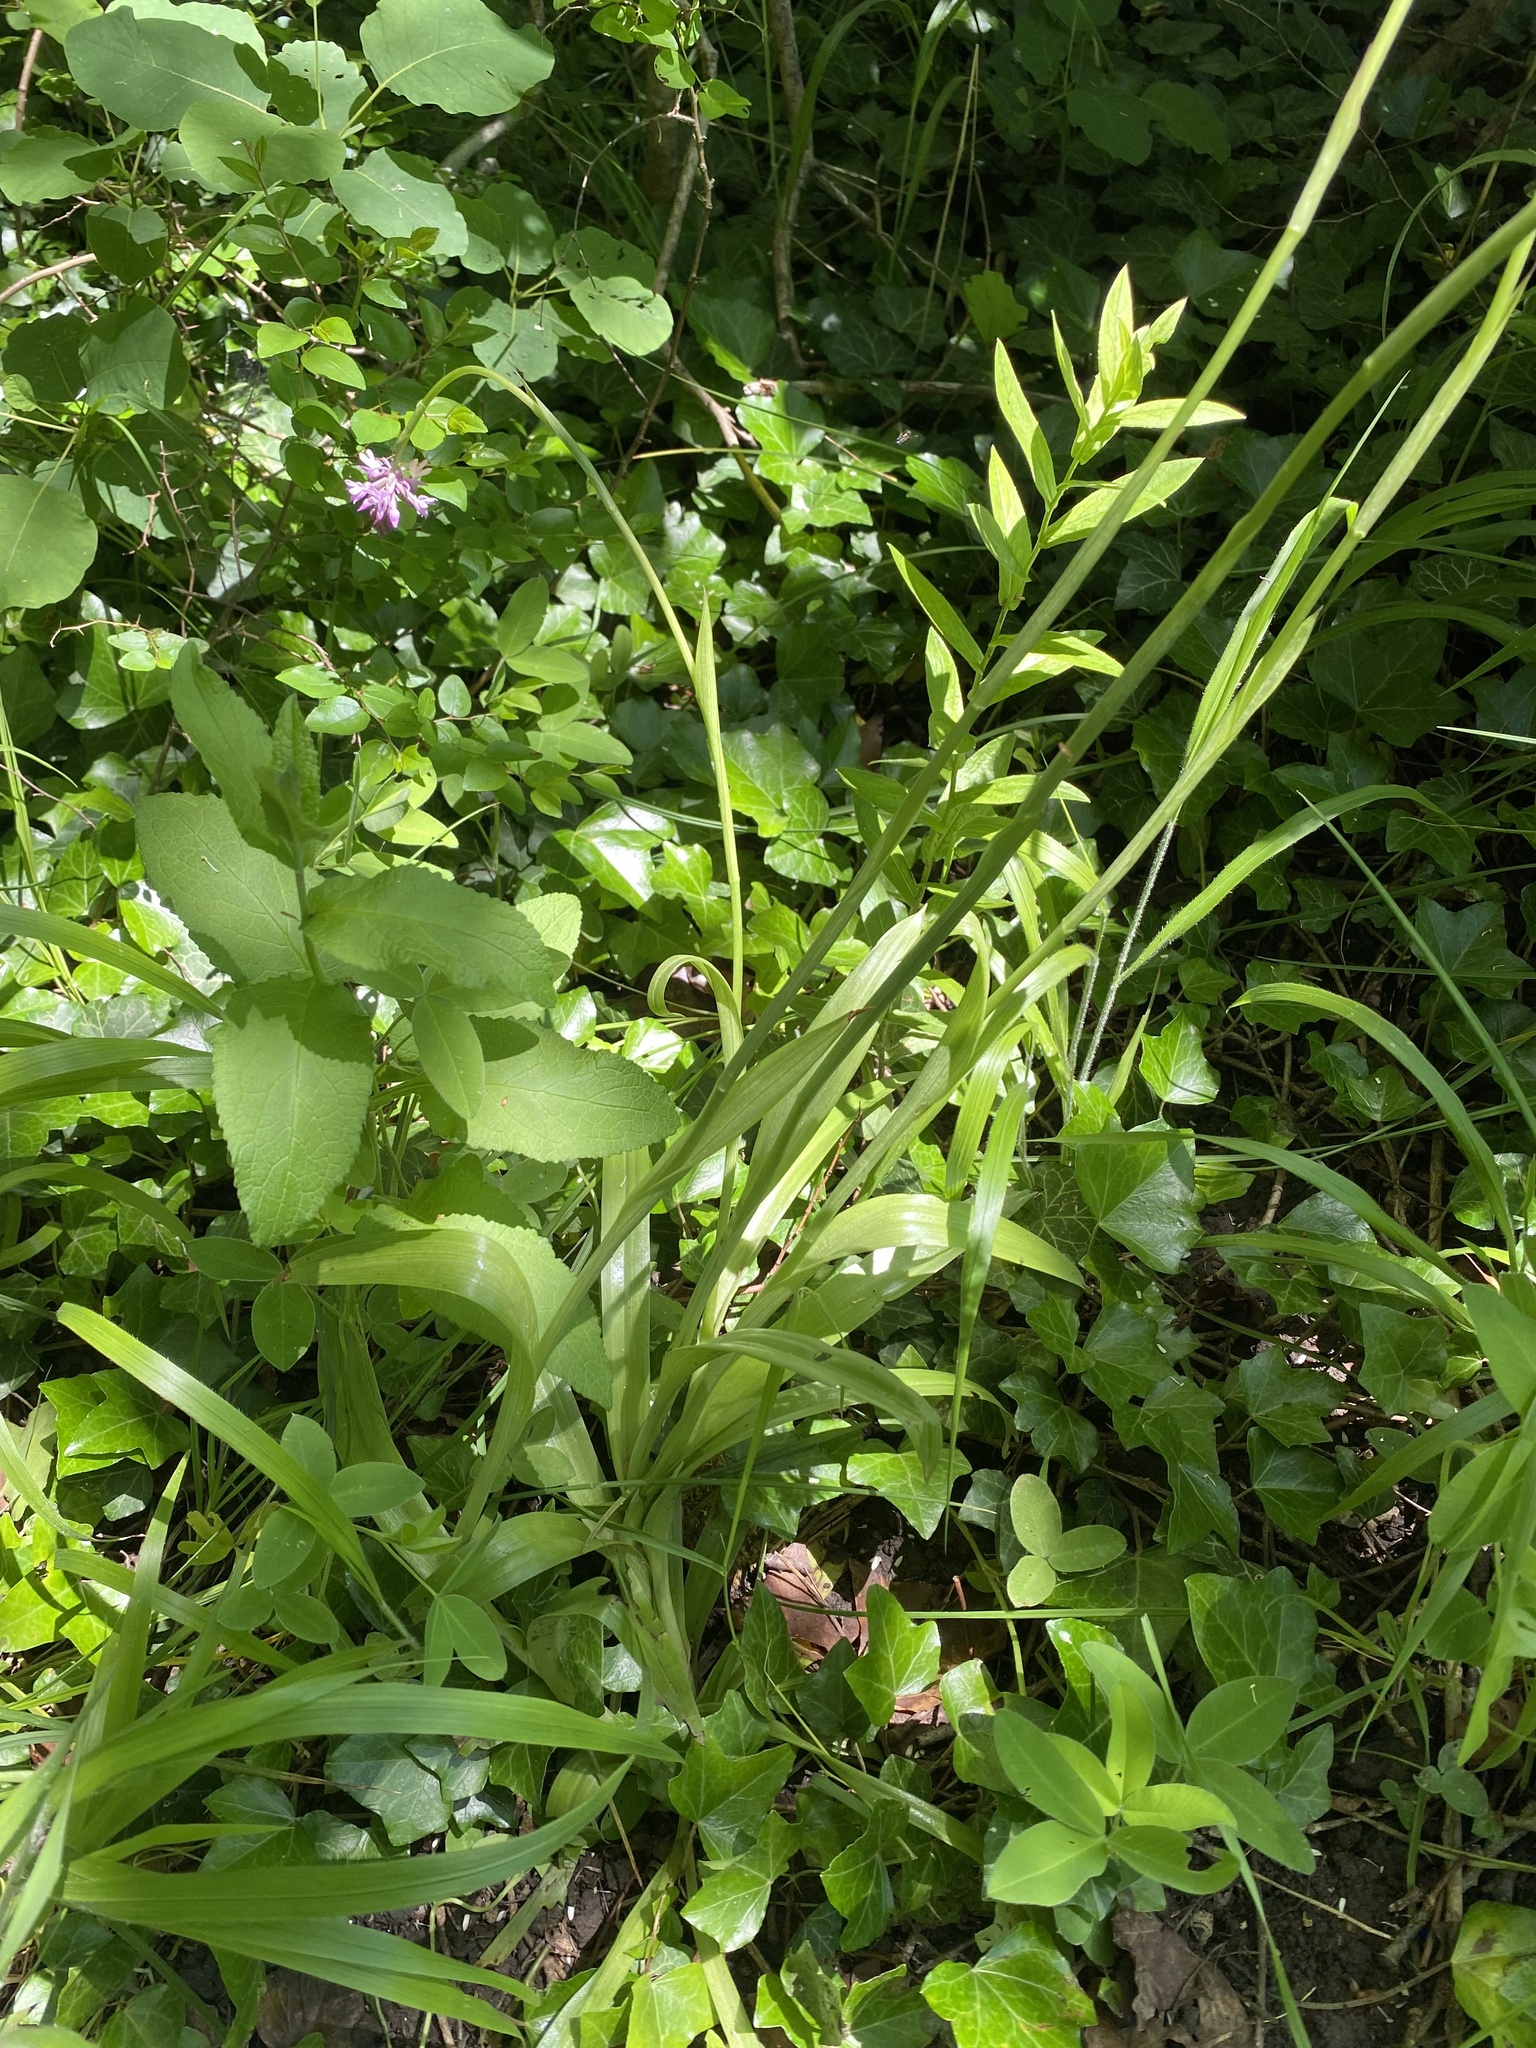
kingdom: Plantae
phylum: Tracheophyta
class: Liliopsida
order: Asparagales
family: Orchidaceae
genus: Anacamptis
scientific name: Anacamptis pyramidalis
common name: Pyramidal orchid
